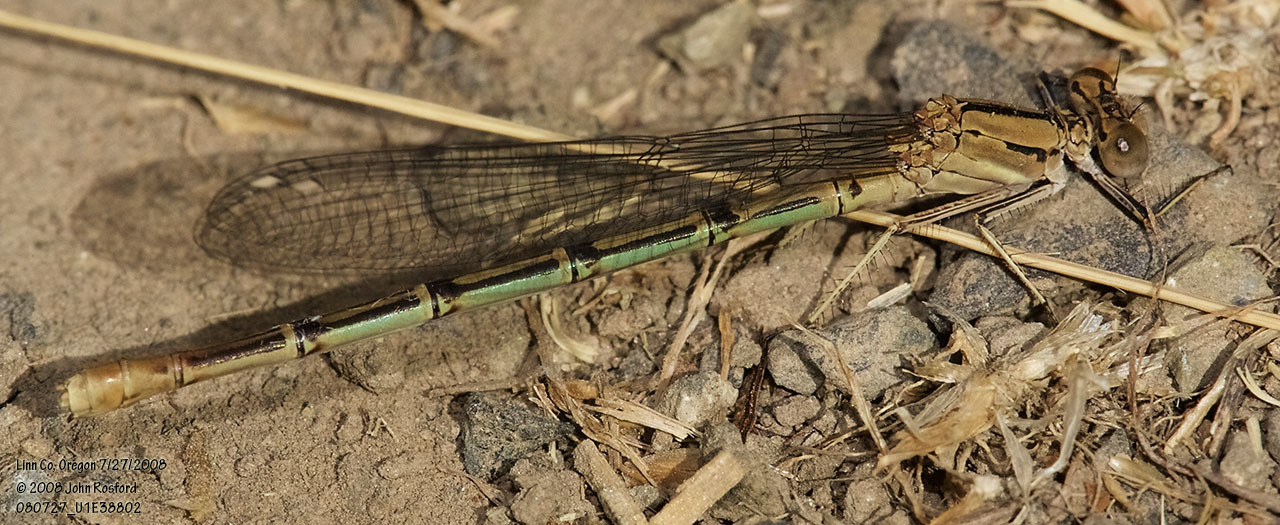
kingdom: Animalia
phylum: Arthropoda
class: Insecta
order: Odonata
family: Coenagrionidae
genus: Argia
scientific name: Argia emma
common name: Emma's dancer
